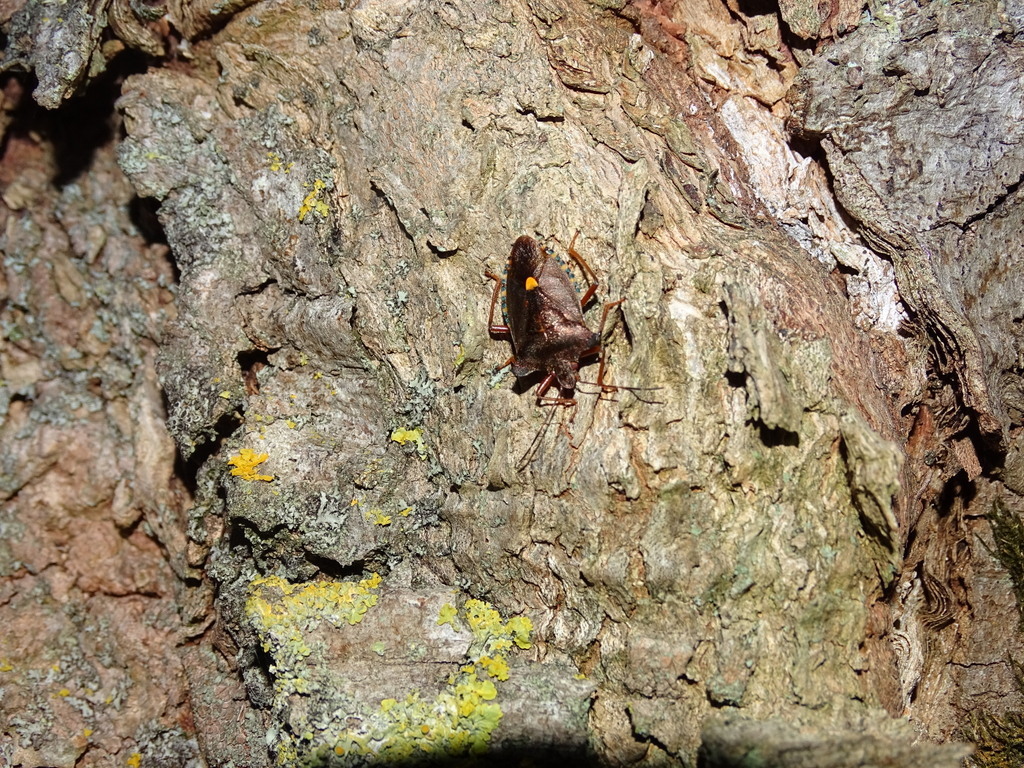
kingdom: Animalia
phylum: Arthropoda
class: Insecta
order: Hemiptera
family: Pentatomidae
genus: Pentatoma
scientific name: Pentatoma rufipes
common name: Forest bug
